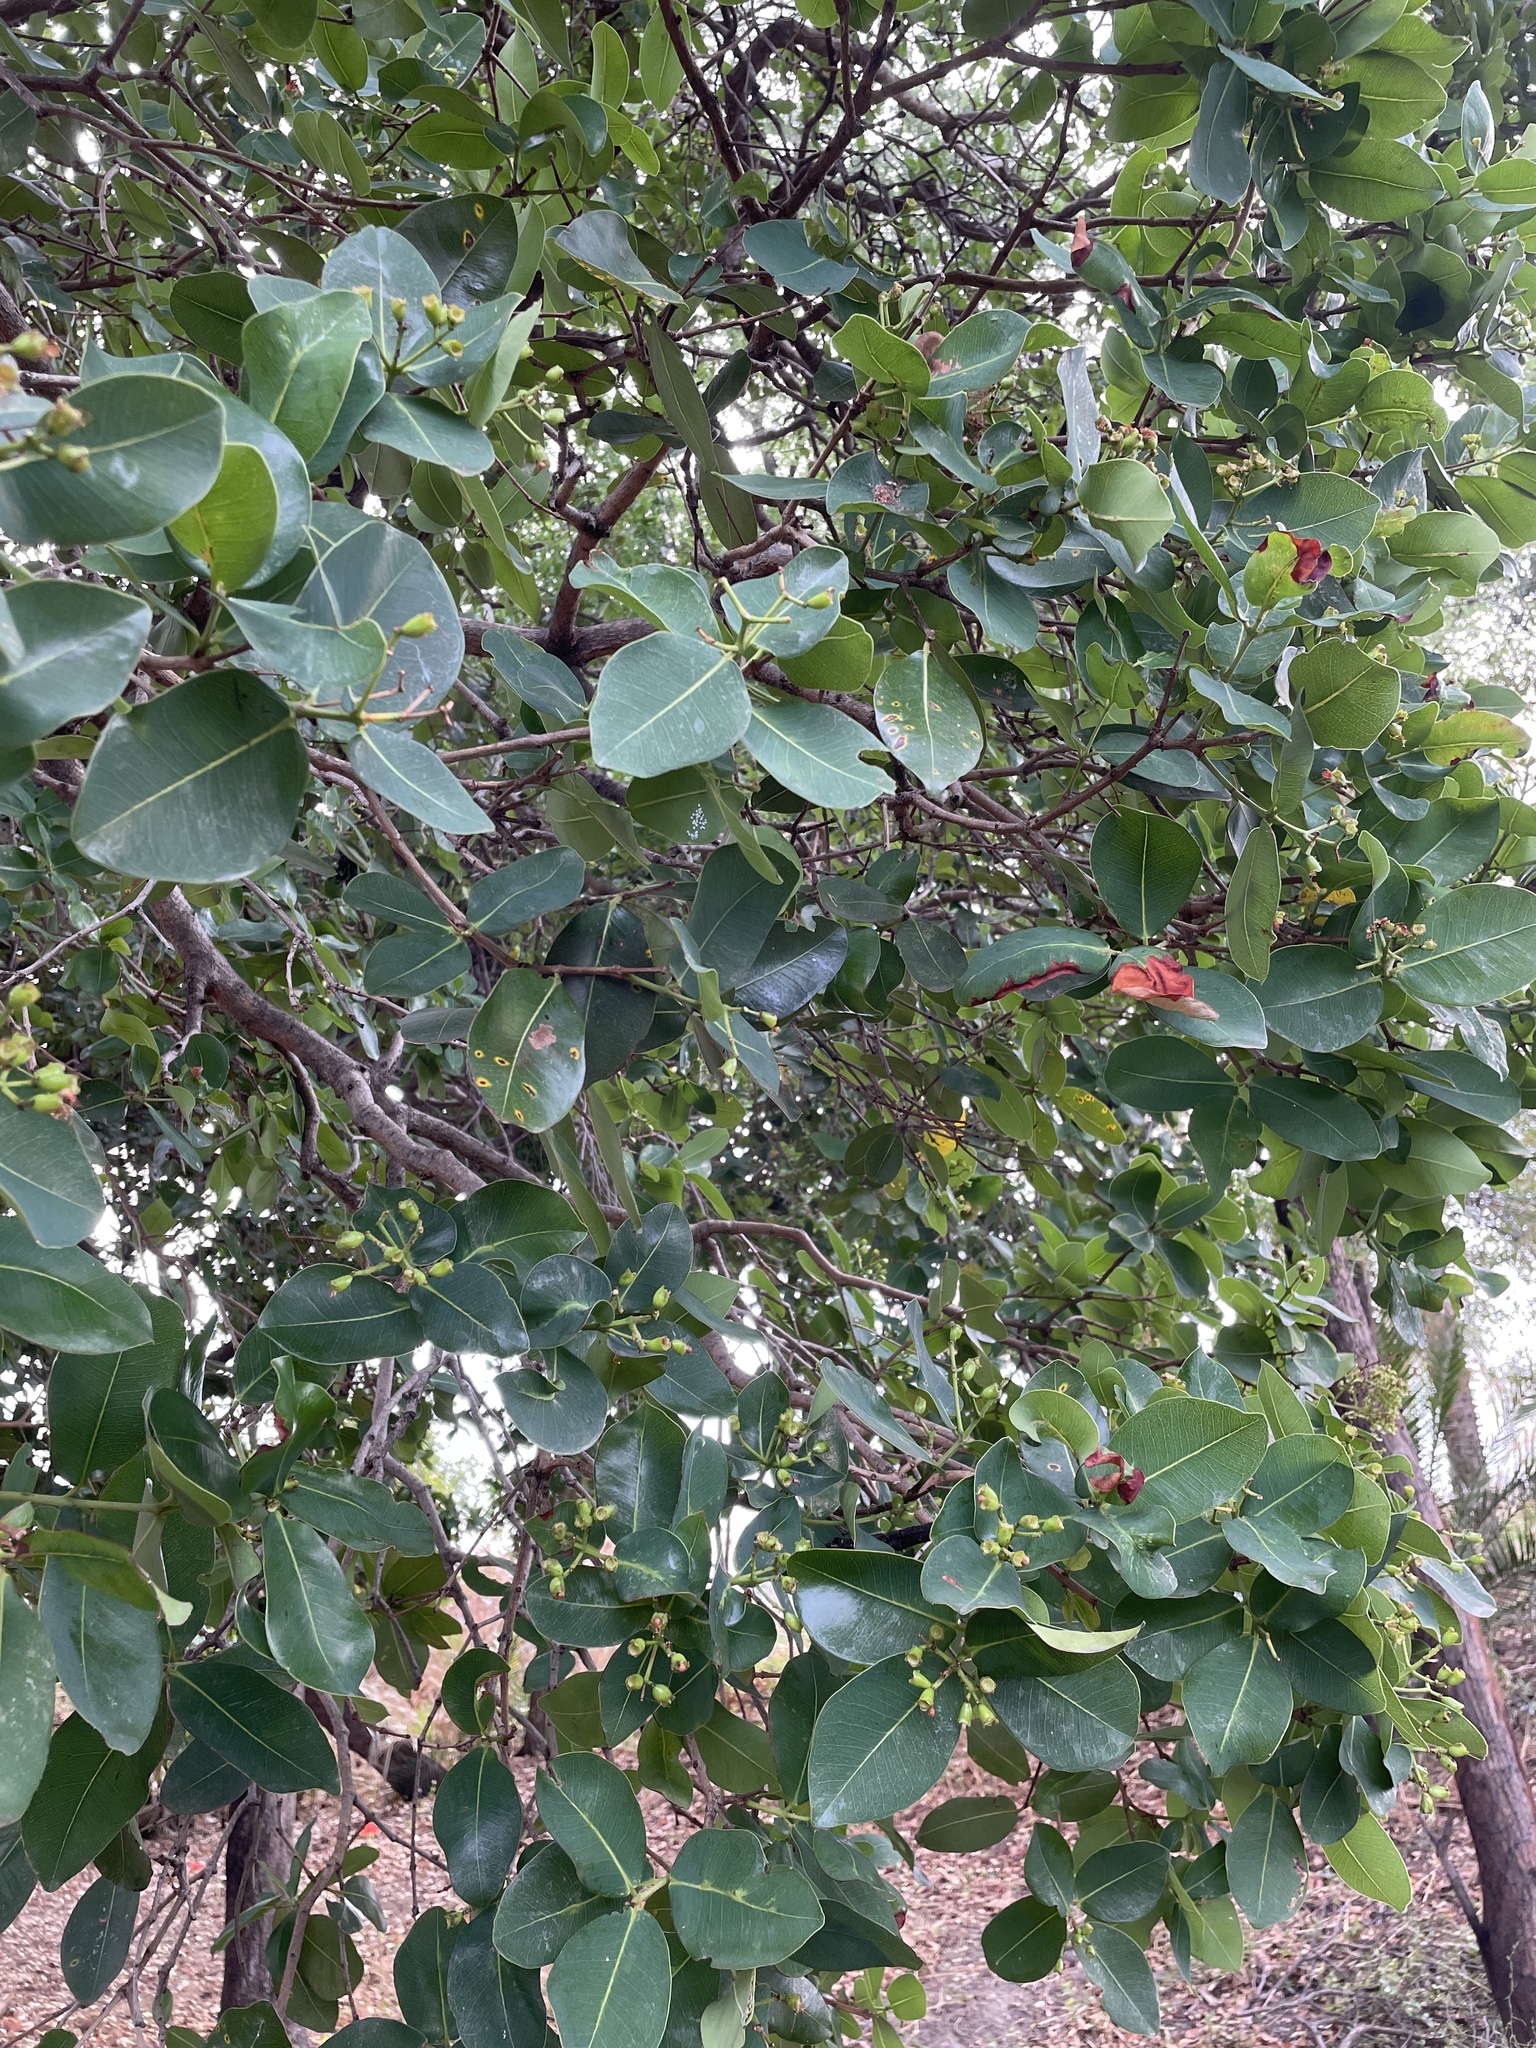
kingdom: Plantae
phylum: Tracheophyta
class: Magnoliopsida
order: Myrtales
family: Myrtaceae
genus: Syzygium
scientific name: Syzygium cordatum
